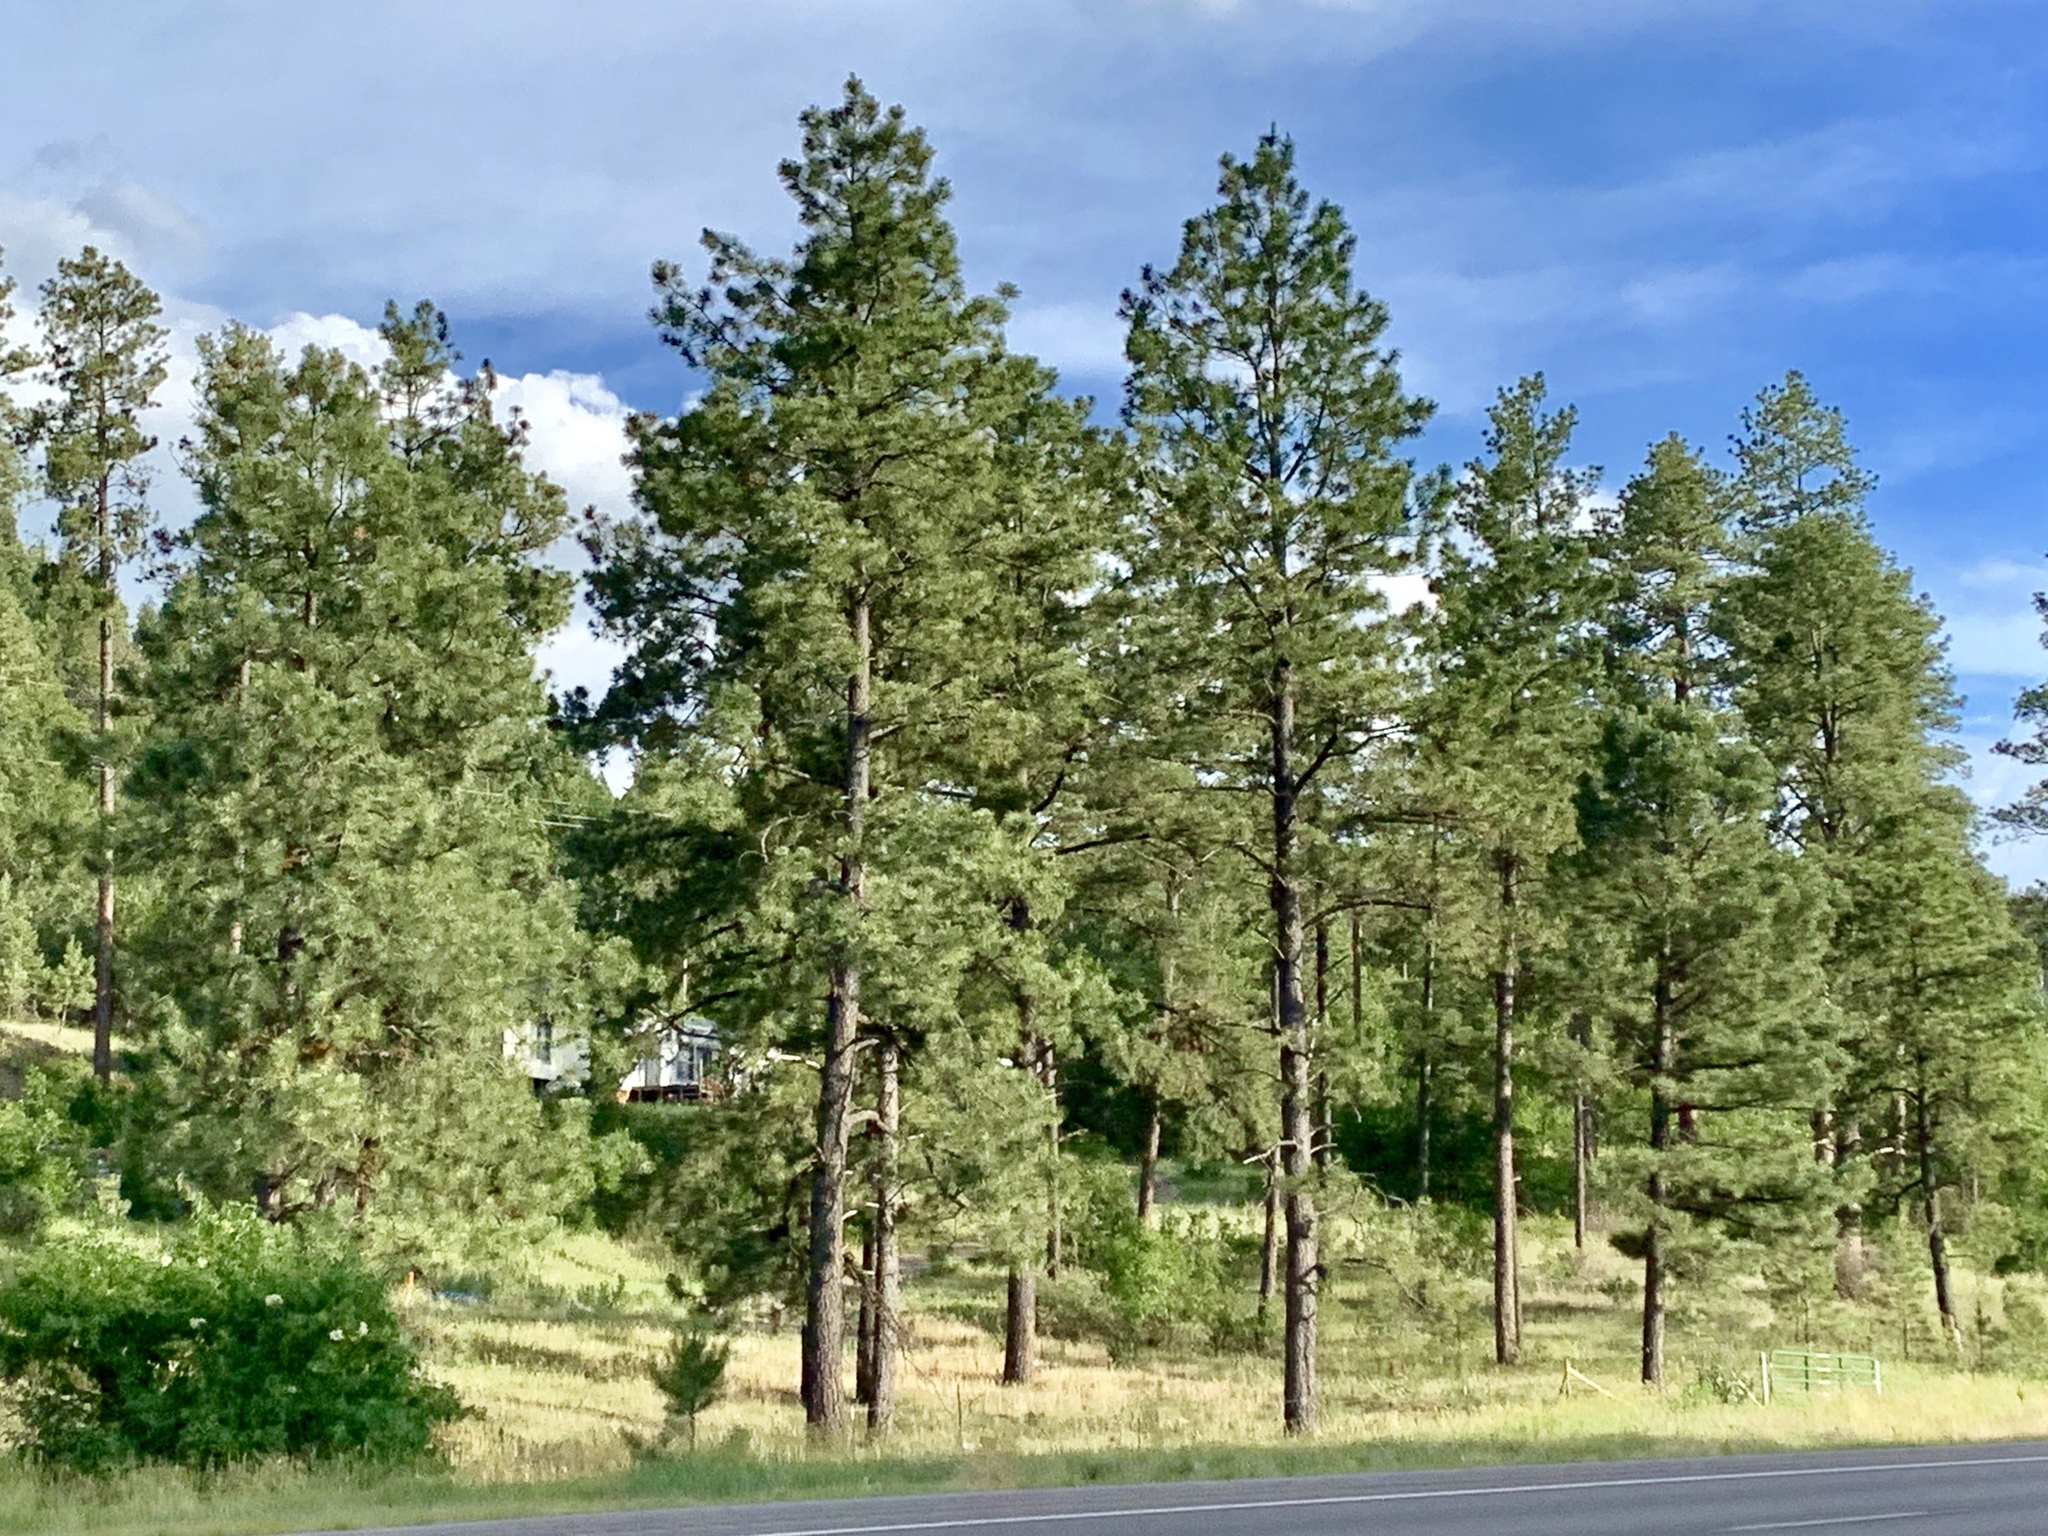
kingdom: Plantae
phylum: Tracheophyta
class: Pinopsida
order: Pinales
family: Pinaceae
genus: Pinus
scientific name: Pinus ponderosa
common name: Western yellow-pine
